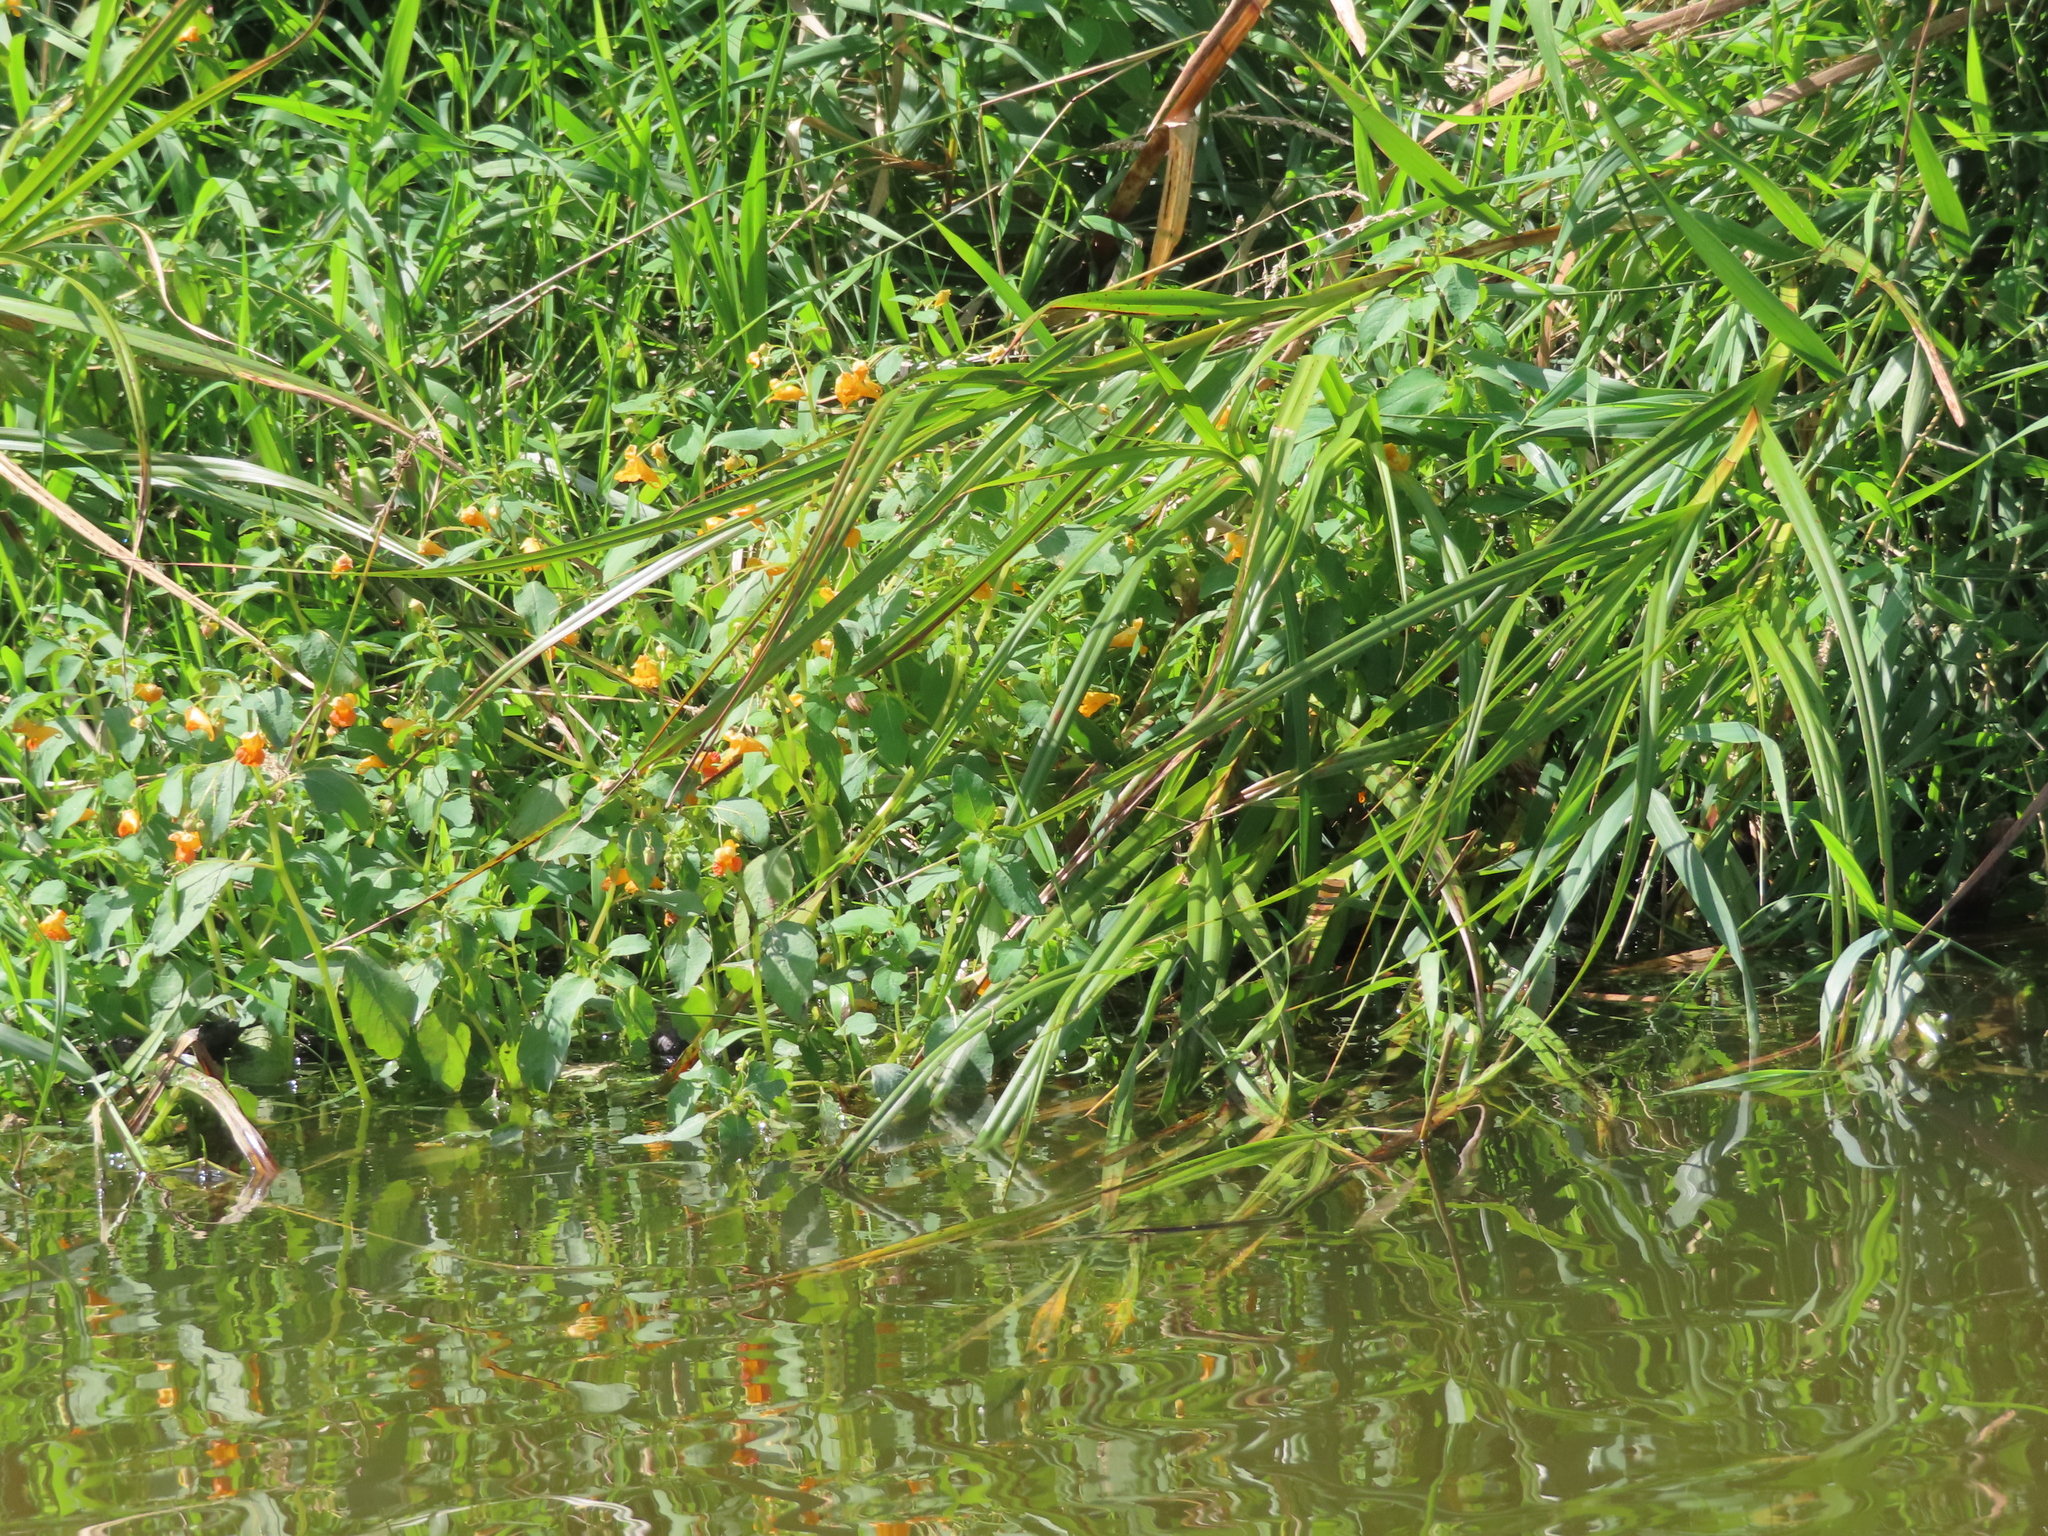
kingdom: Plantae
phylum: Tracheophyta
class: Magnoliopsida
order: Ericales
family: Balsaminaceae
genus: Impatiens
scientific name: Impatiens capensis
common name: Orange balsam
